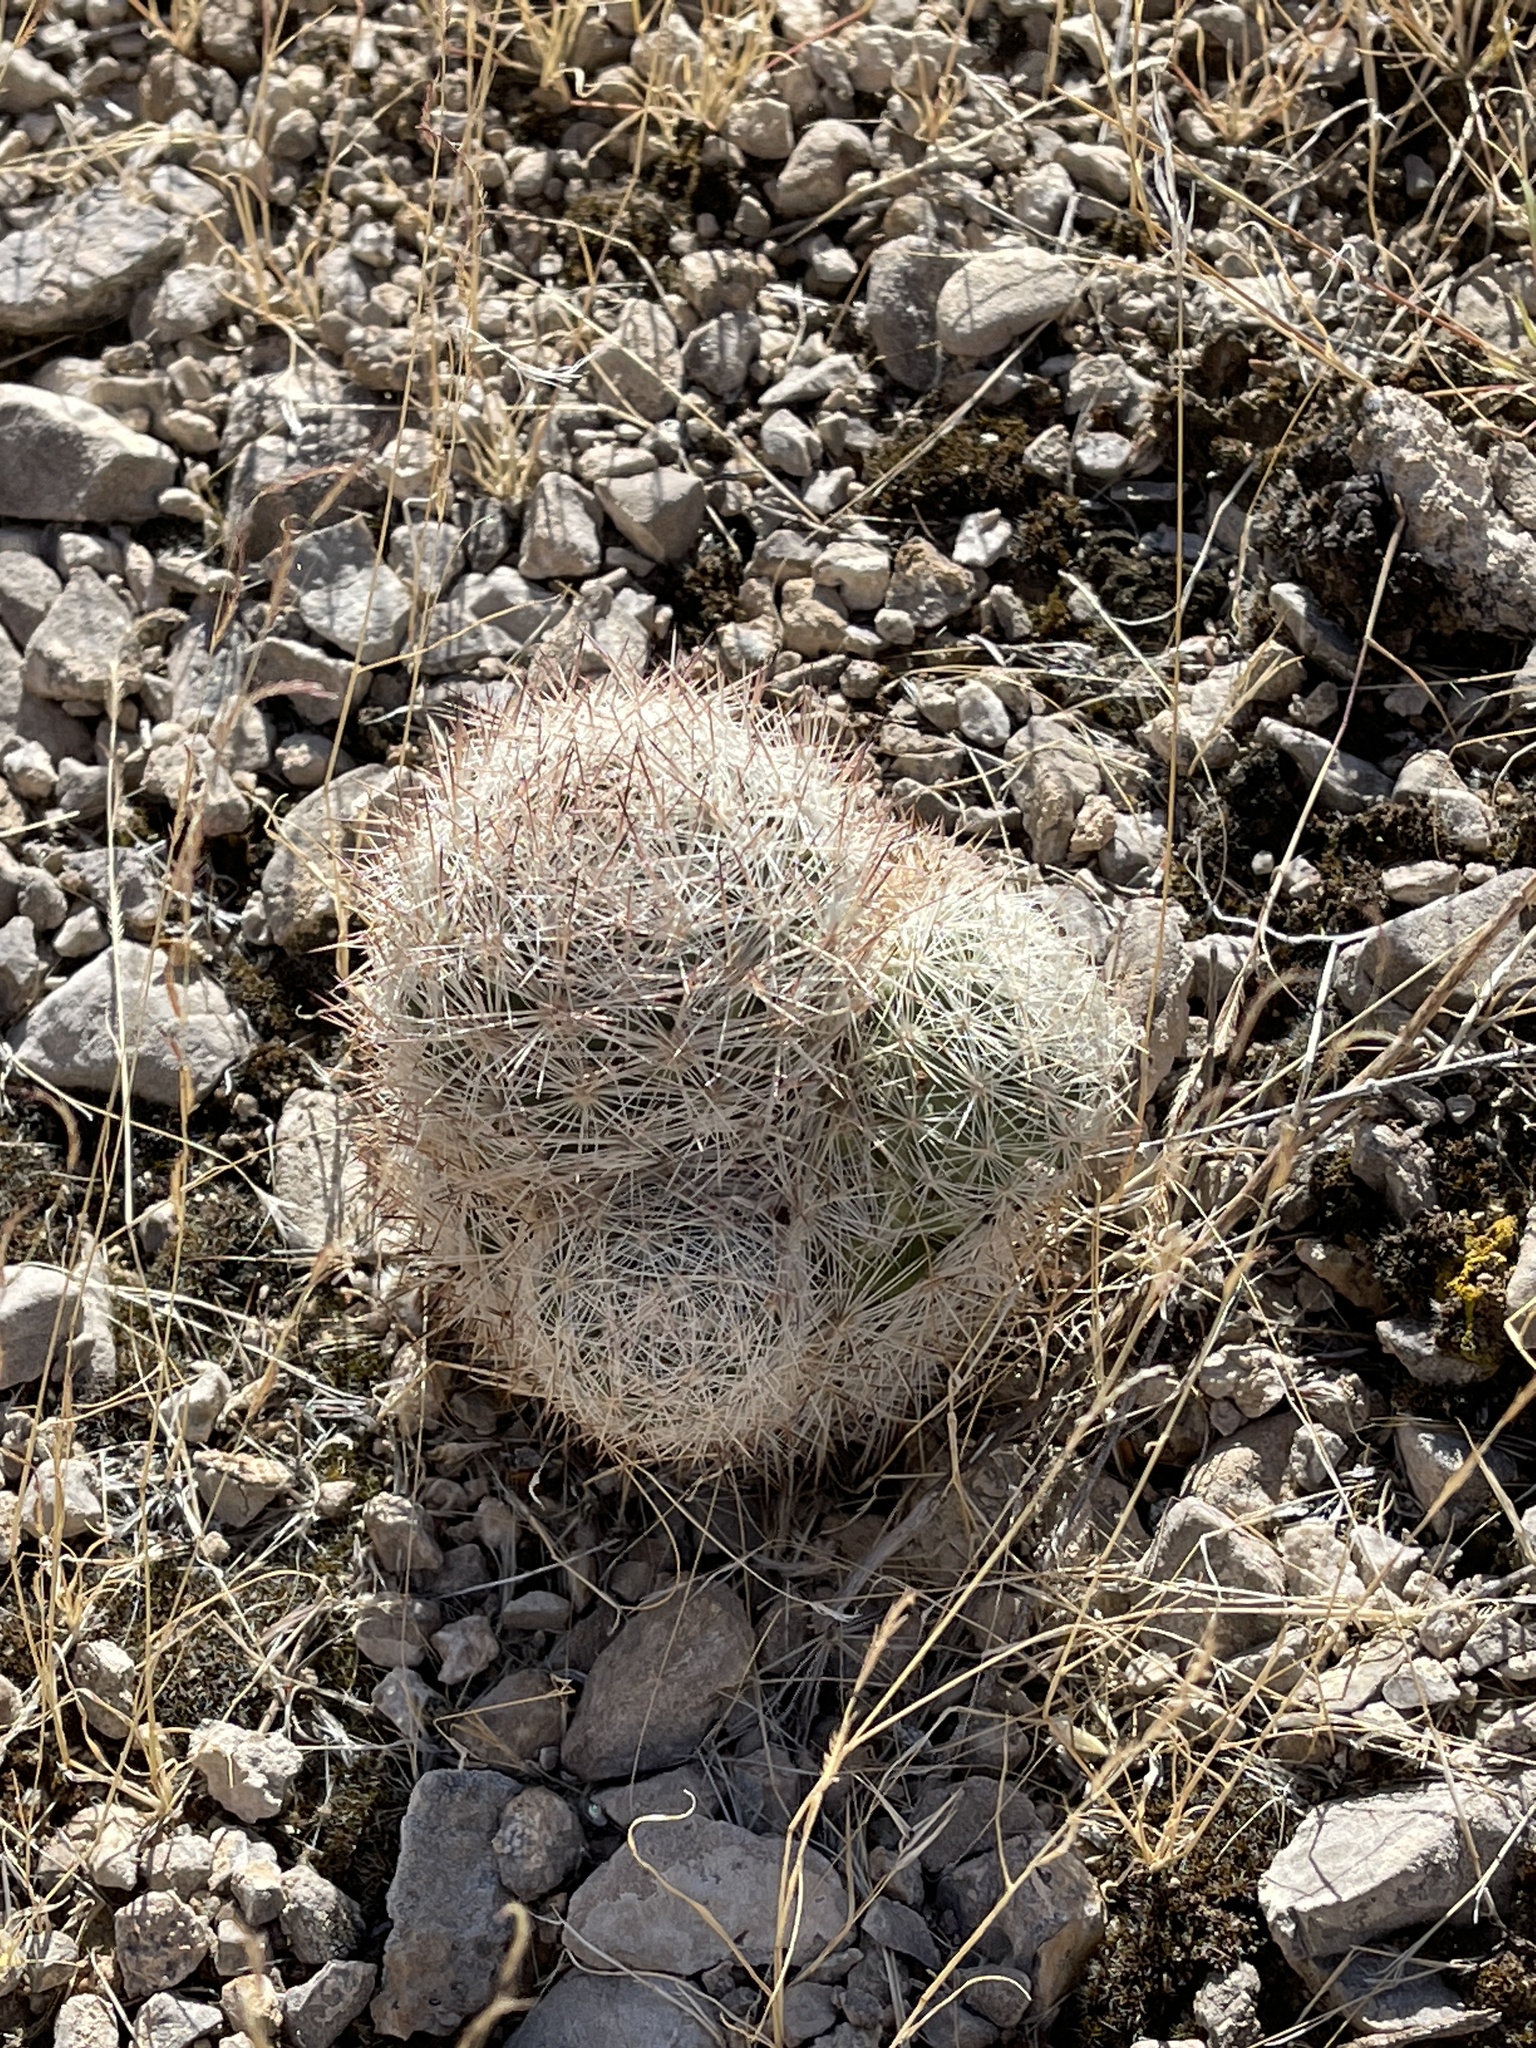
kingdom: Plantae
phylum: Tracheophyta
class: Magnoliopsida
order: Caryophyllales
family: Cactaceae
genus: Pelecyphora
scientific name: Pelecyphora dasyacantha
